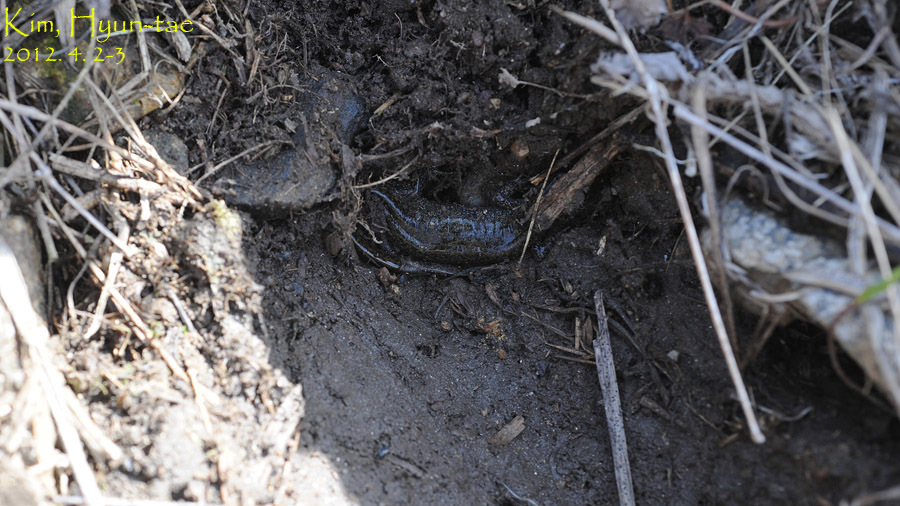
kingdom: Animalia
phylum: Chordata
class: Amphibia
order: Caudata
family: Hynobiidae
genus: Hynobius
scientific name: Hynobius leechii
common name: Gensan salamander
